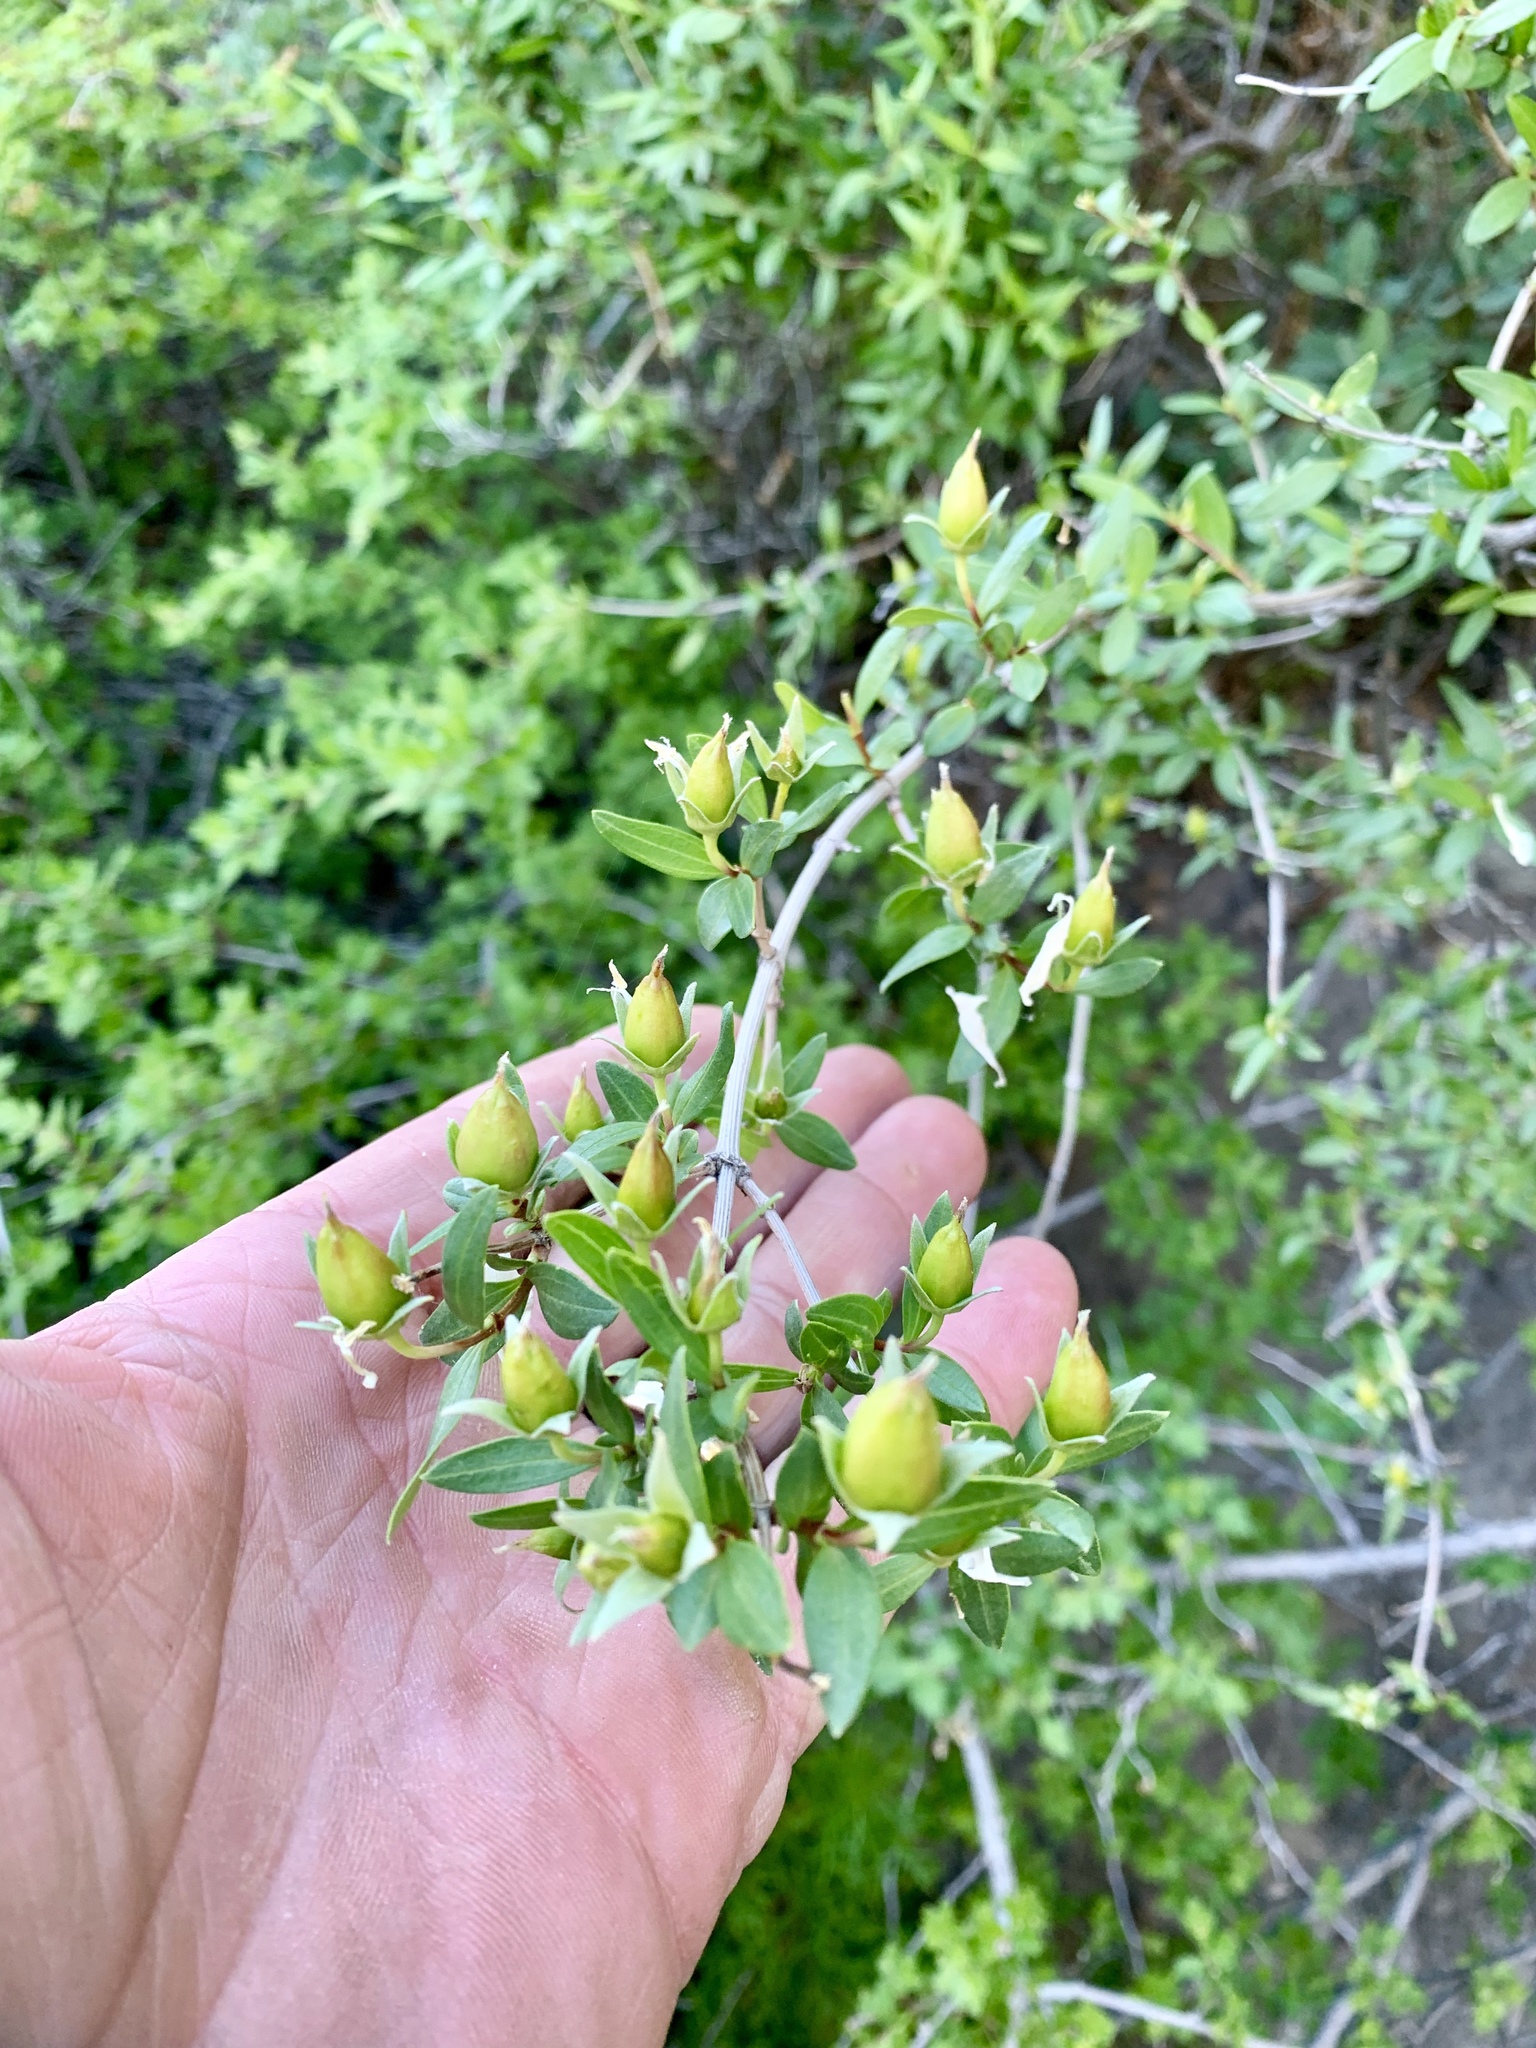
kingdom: Plantae
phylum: Tracheophyta
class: Magnoliopsida
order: Cornales
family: Hydrangeaceae
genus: Fendlera
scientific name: Fendlera rupicola
